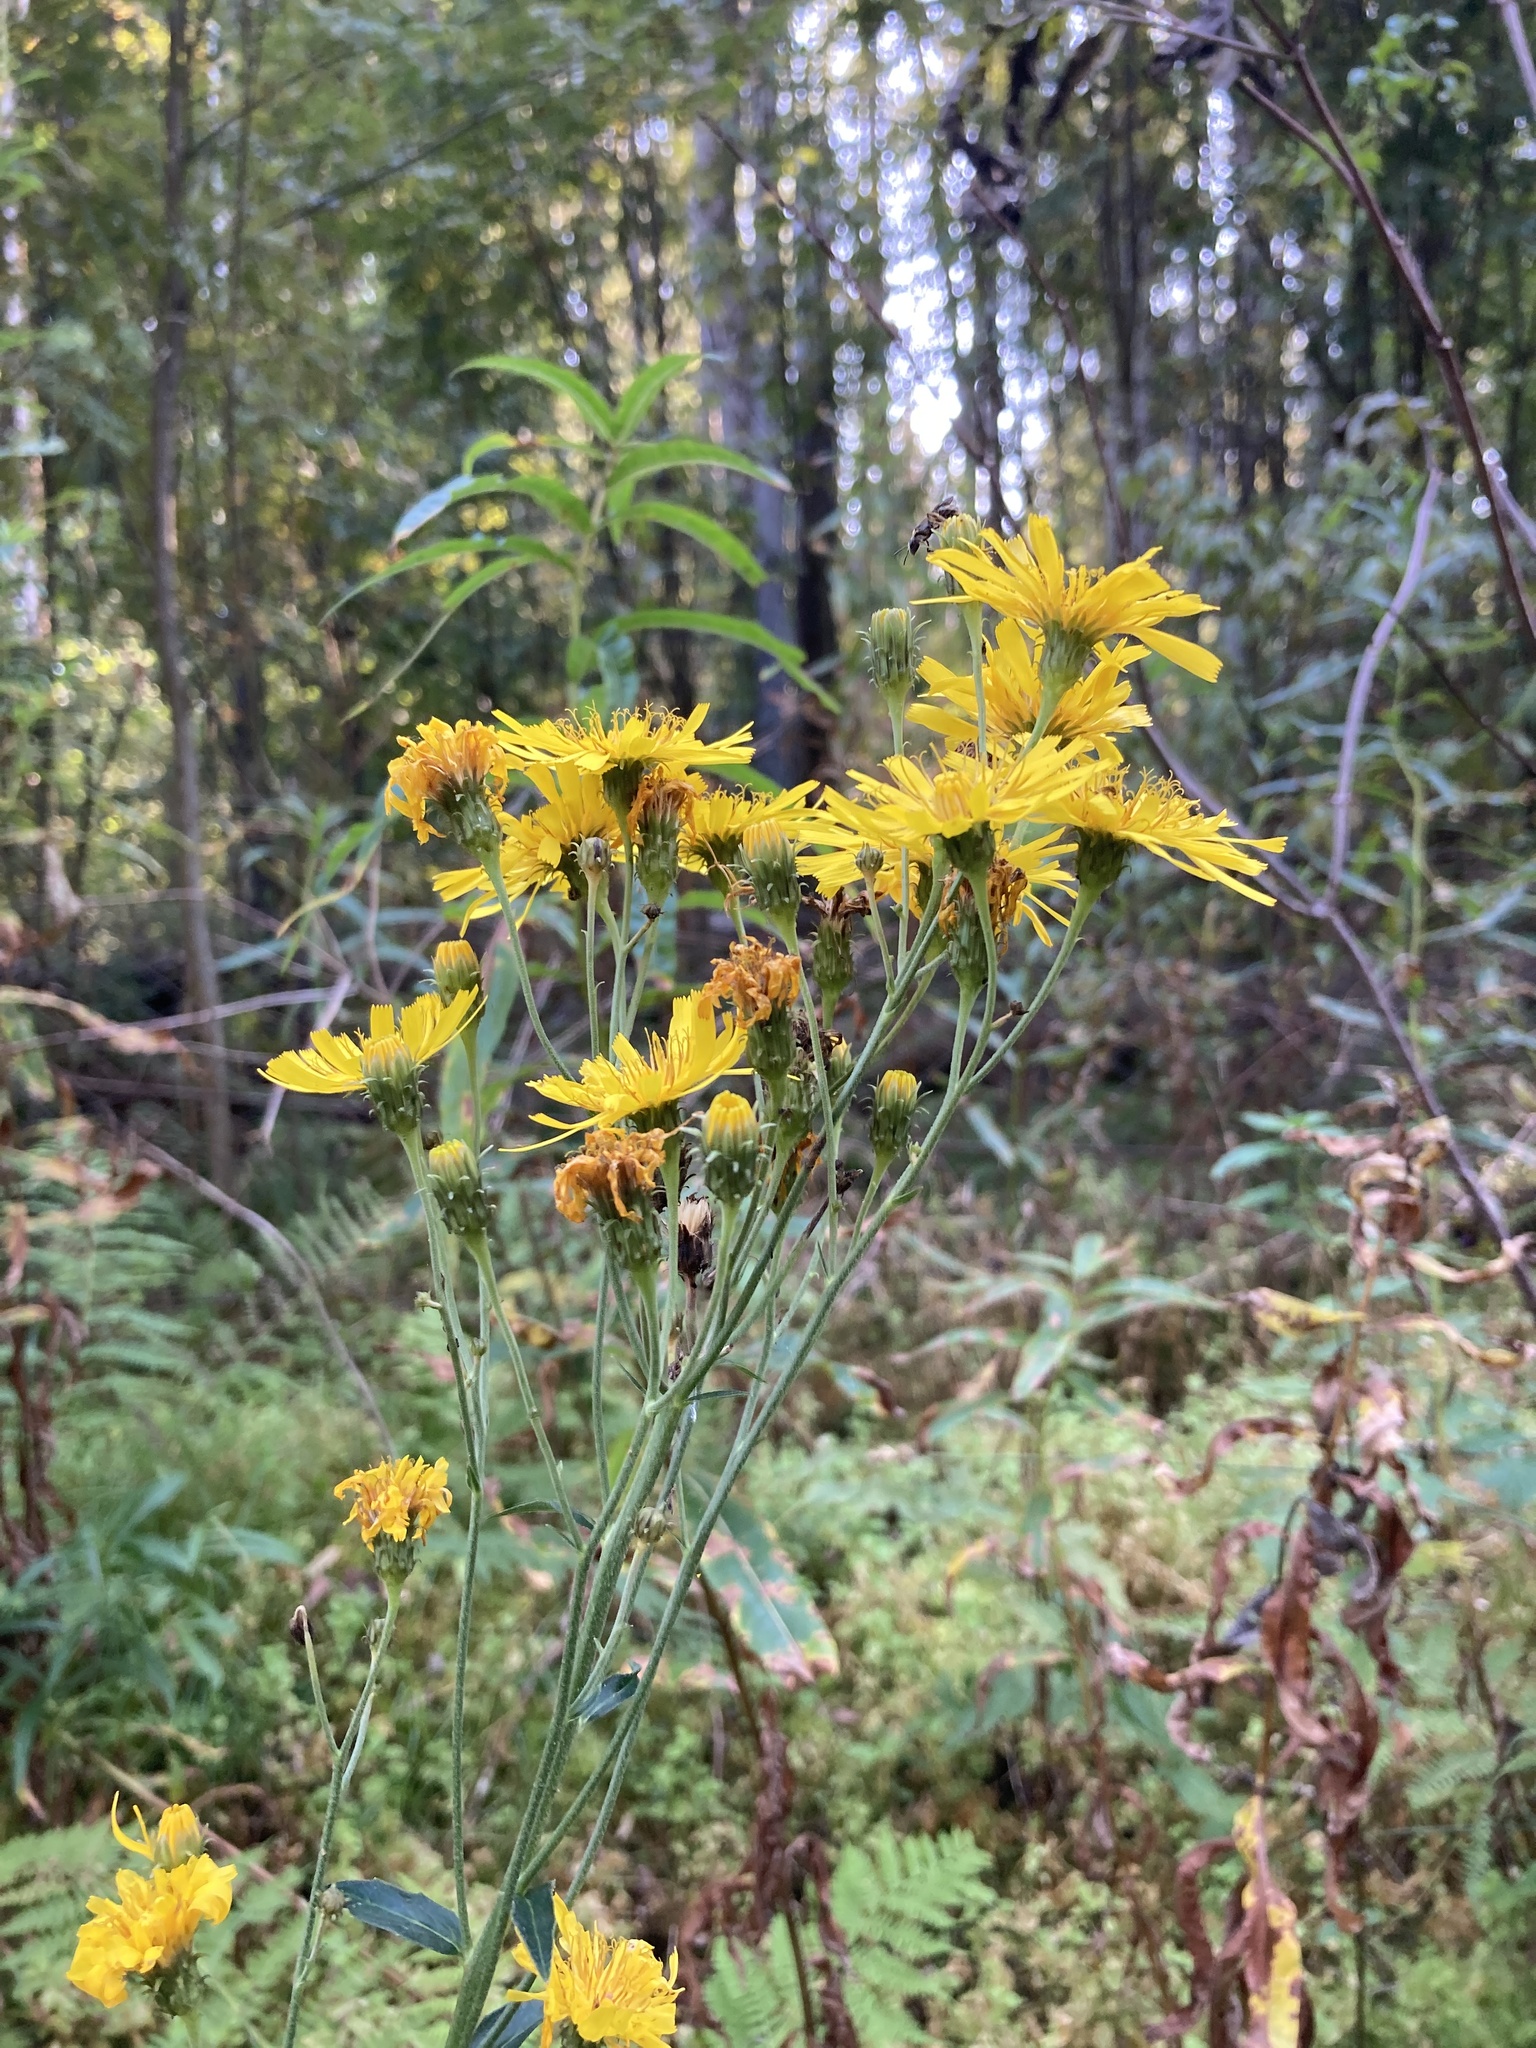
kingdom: Plantae
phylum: Tracheophyta
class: Magnoliopsida
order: Asterales
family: Asteraceae
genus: Hieracium
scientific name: Hieracium umbellatum
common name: Northern hawkweed
